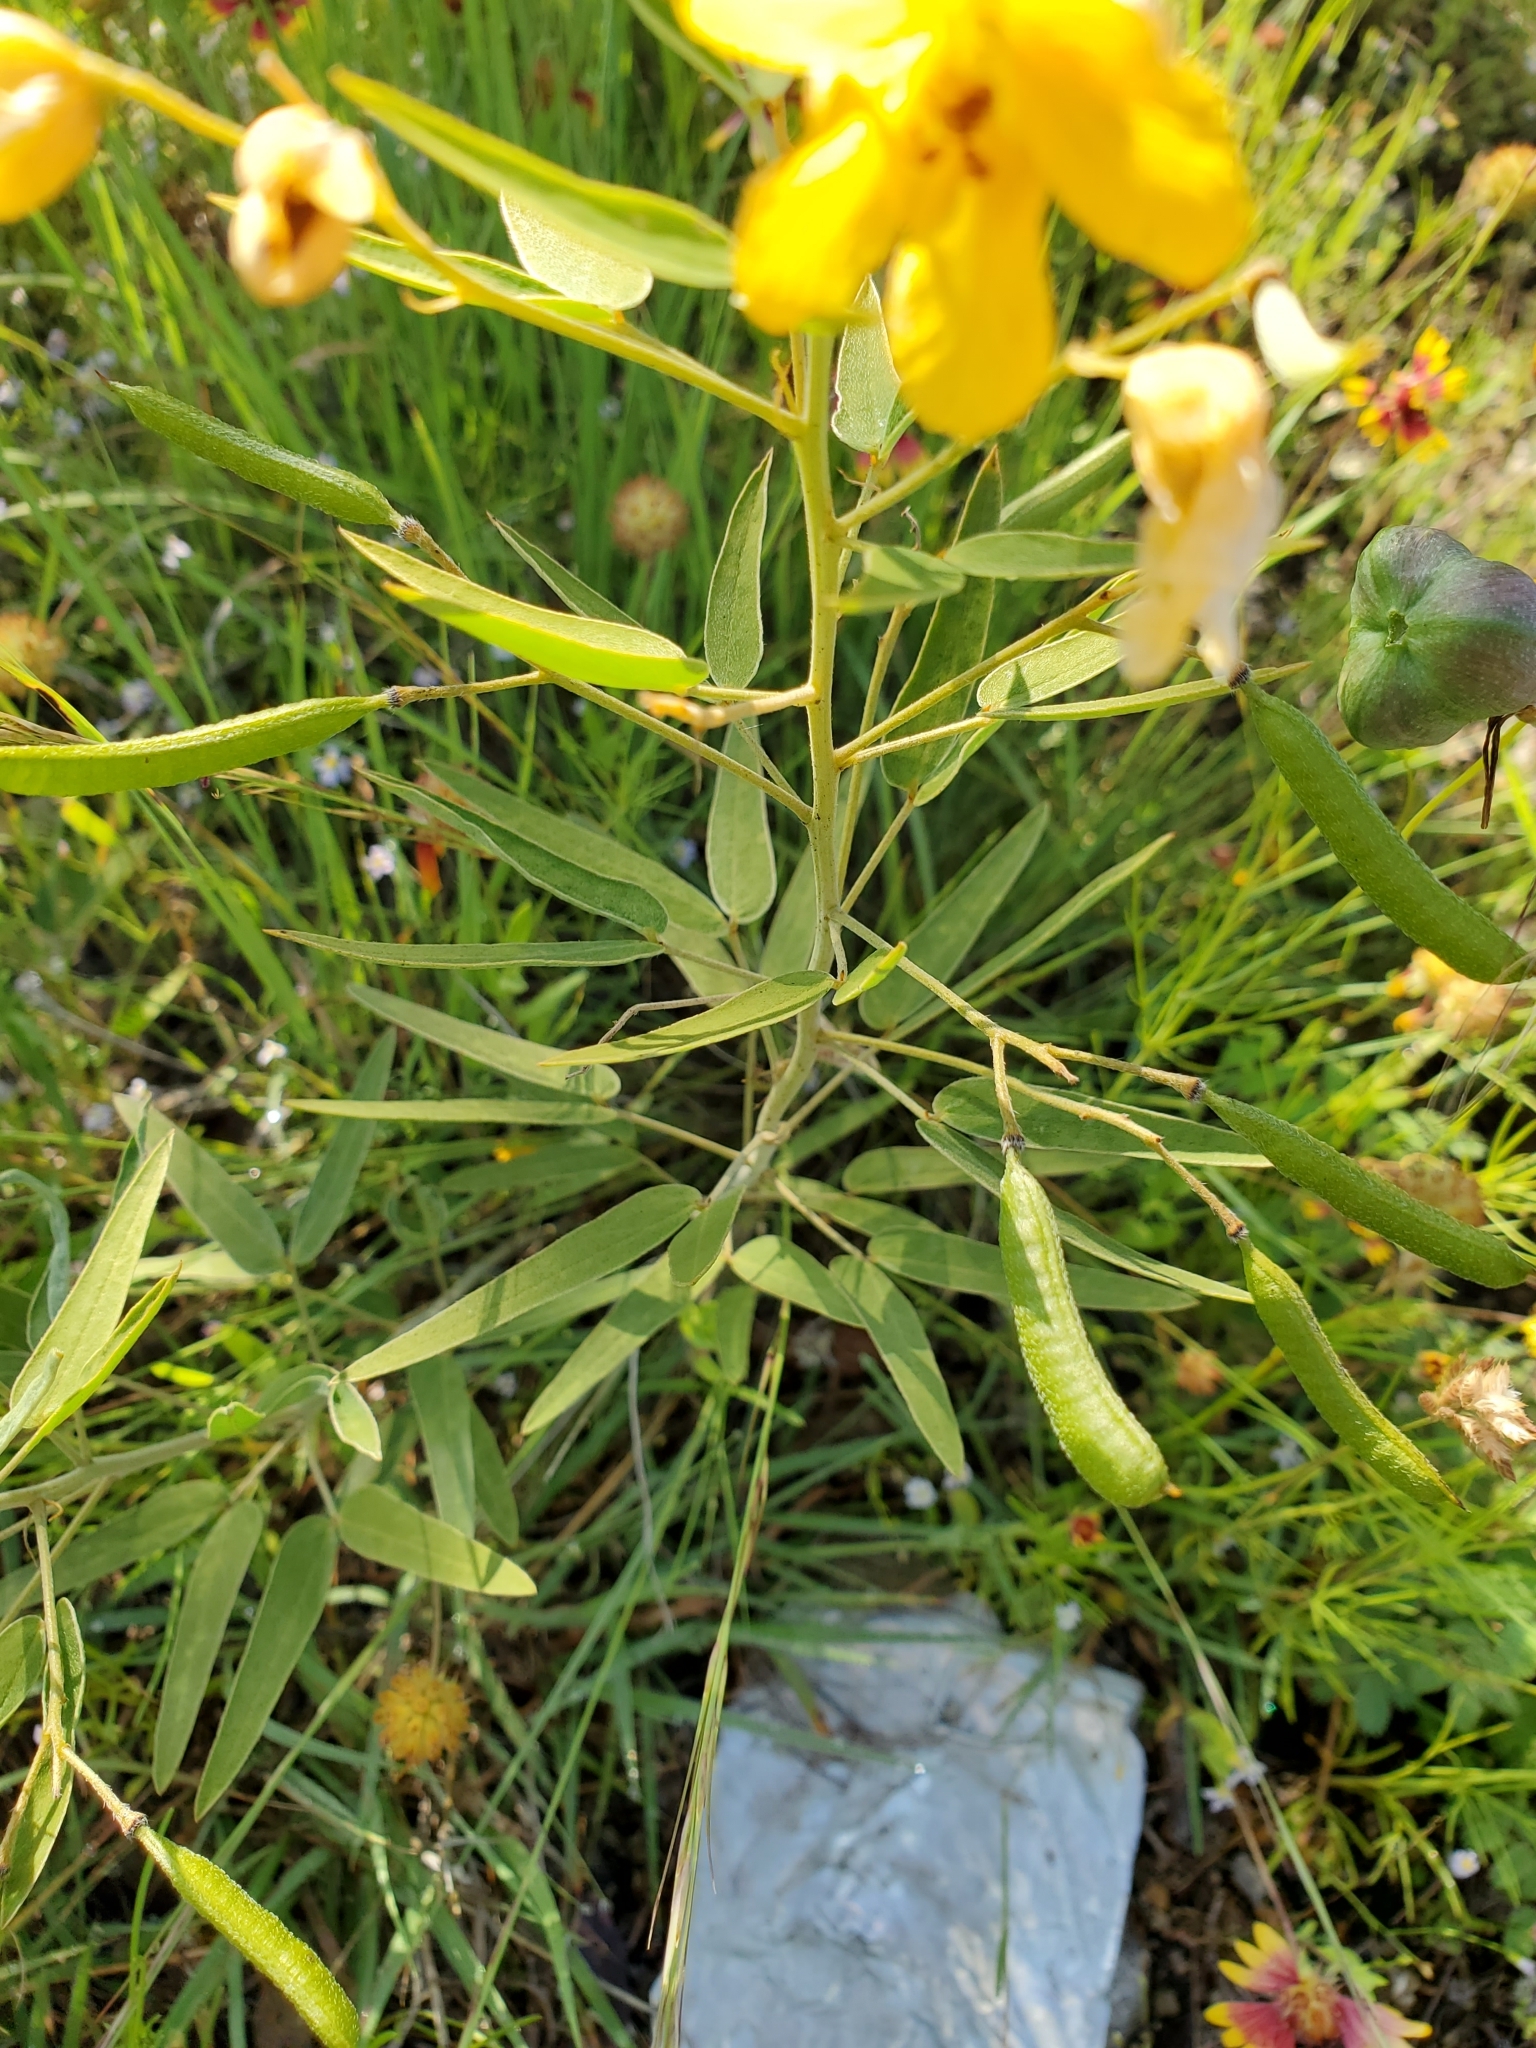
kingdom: Plantae
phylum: Tracheophyta
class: Magnoliopsida
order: Fabales
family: Fabaceae
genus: Senna
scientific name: Senna roemeriana
